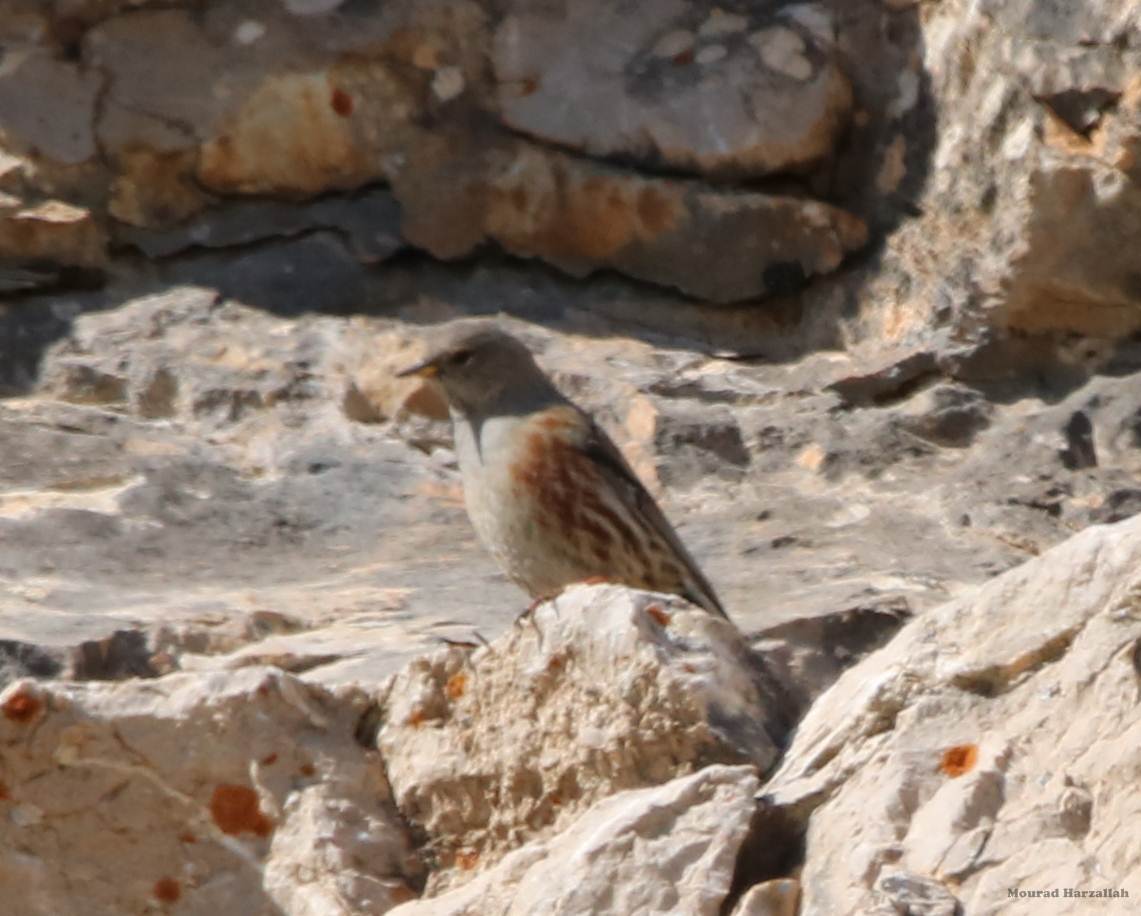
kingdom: Animalia
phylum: Chordata
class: Aves
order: Passeriformes
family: Prunellidae
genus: Prunella
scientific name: Prunella collaris
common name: Alpine accentor
